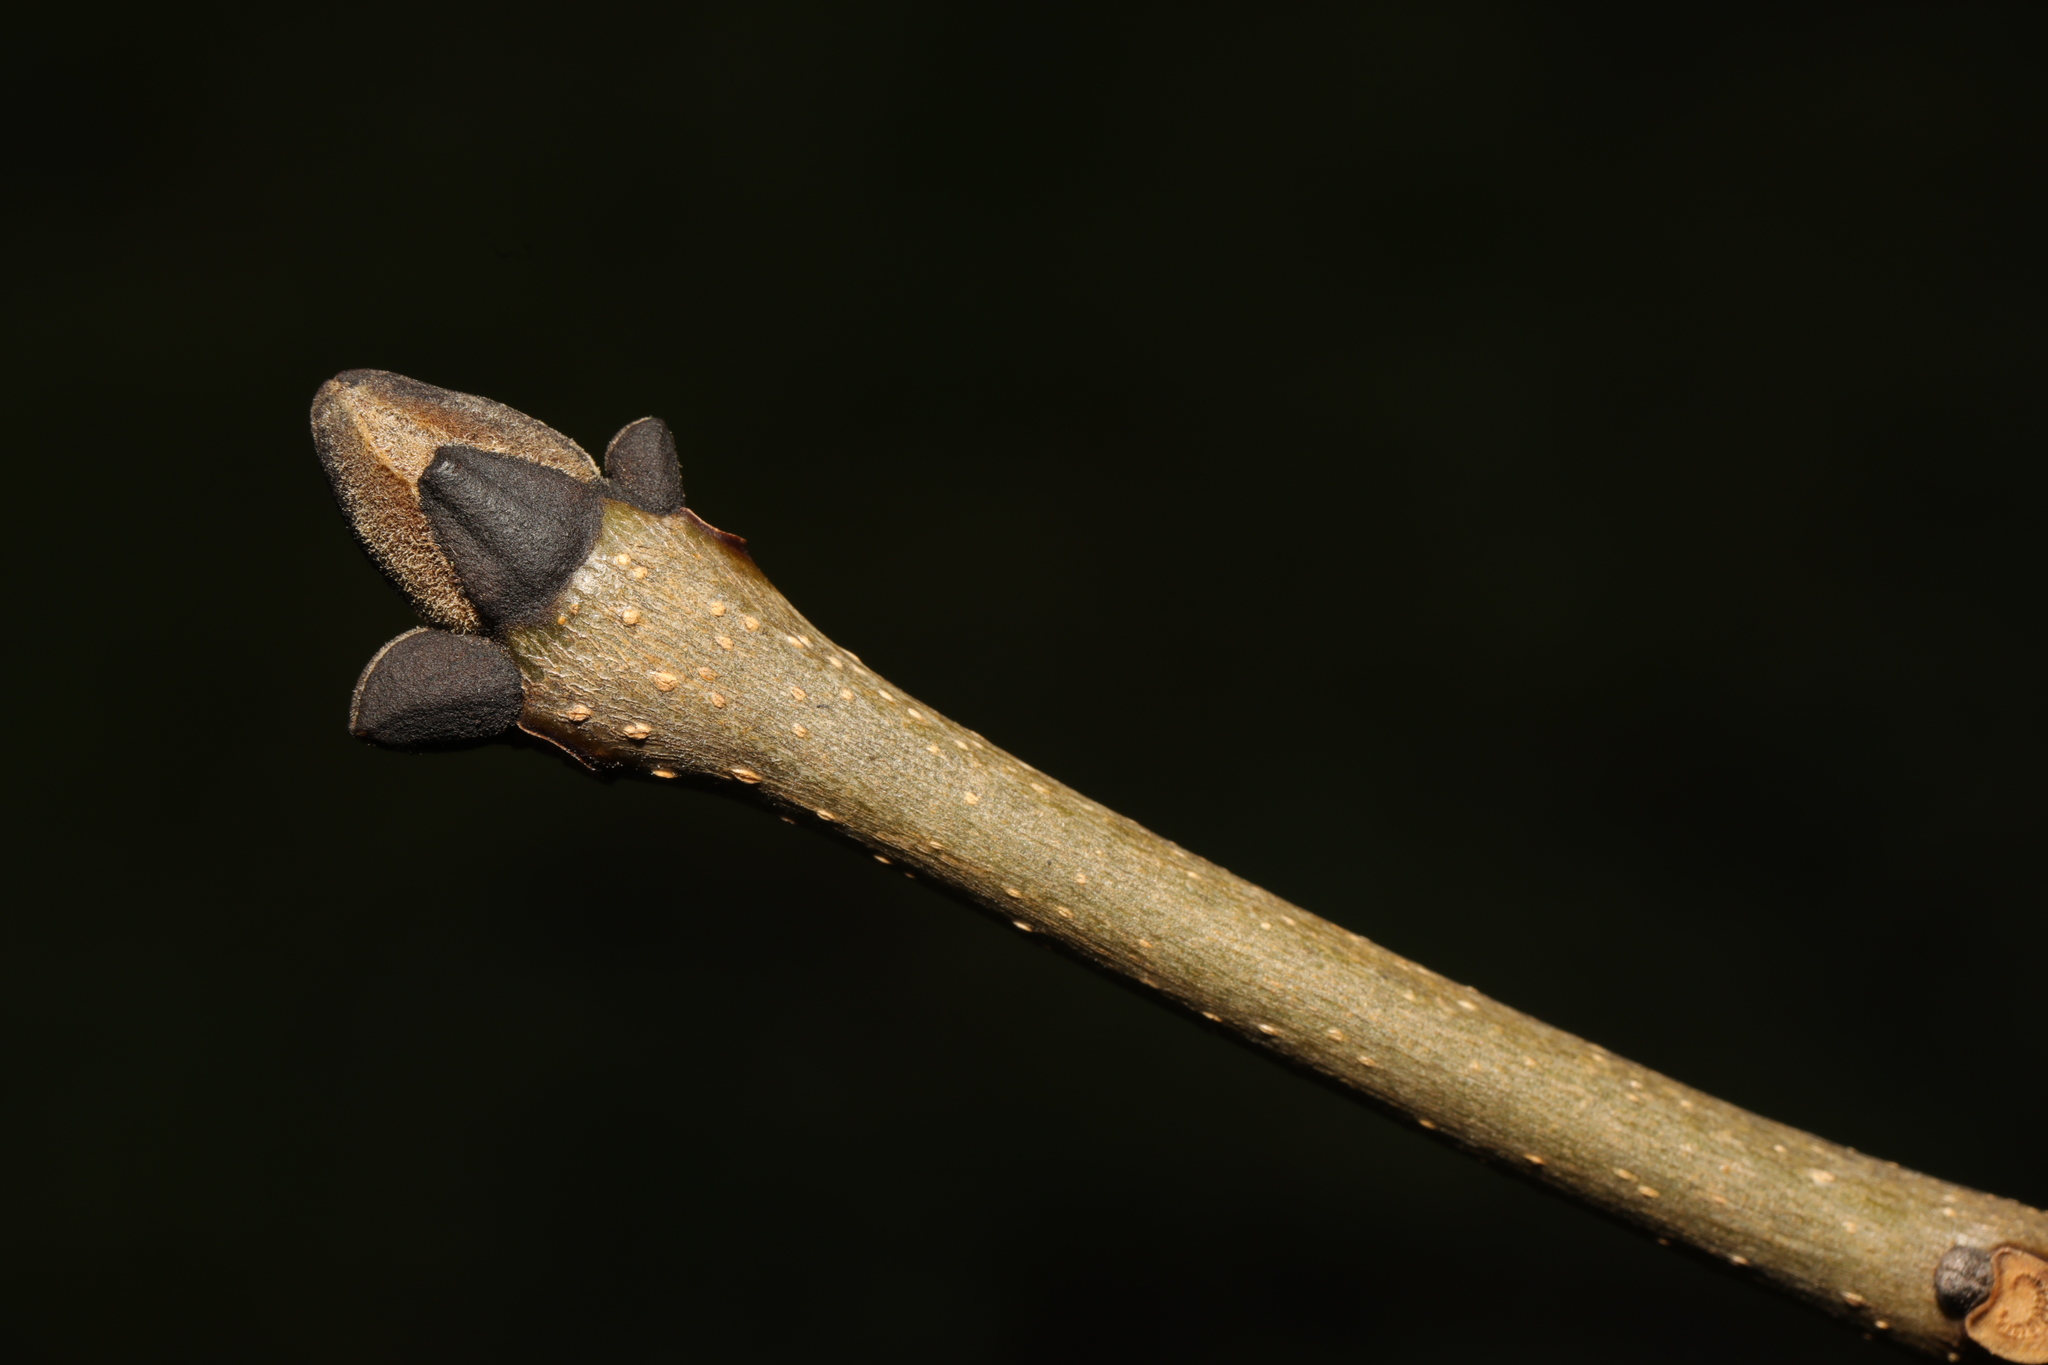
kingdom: Plantae
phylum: Tracheophyta
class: Magnoliopsida
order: Lamiales
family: Oleaceae
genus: Fraxinus
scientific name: Fraxinus excelsior
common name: European ash
